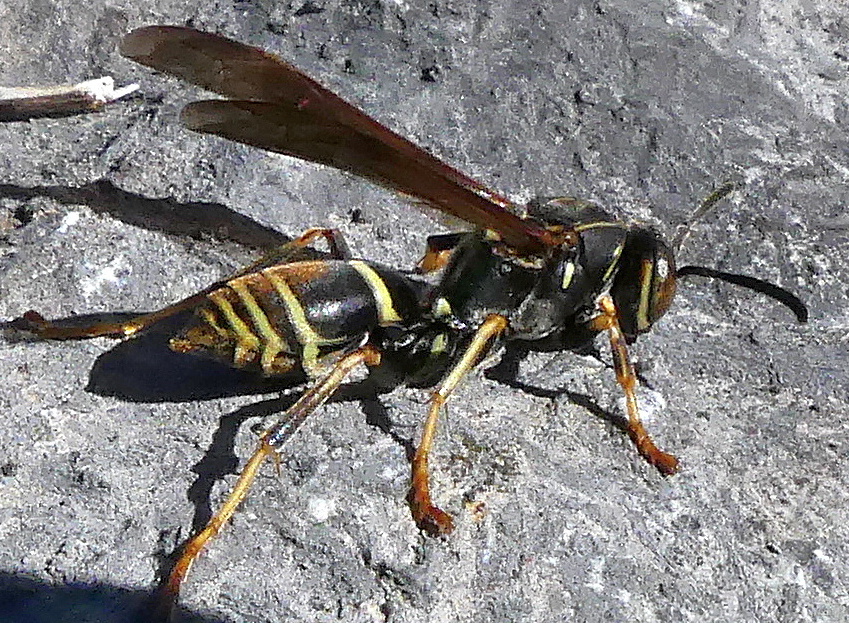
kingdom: Animalia
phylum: Arthropoda
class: Insecta
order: Hymenoptera
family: Eumenidae
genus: Polistes
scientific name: Polistes fuscatus
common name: Dark paper wasp
